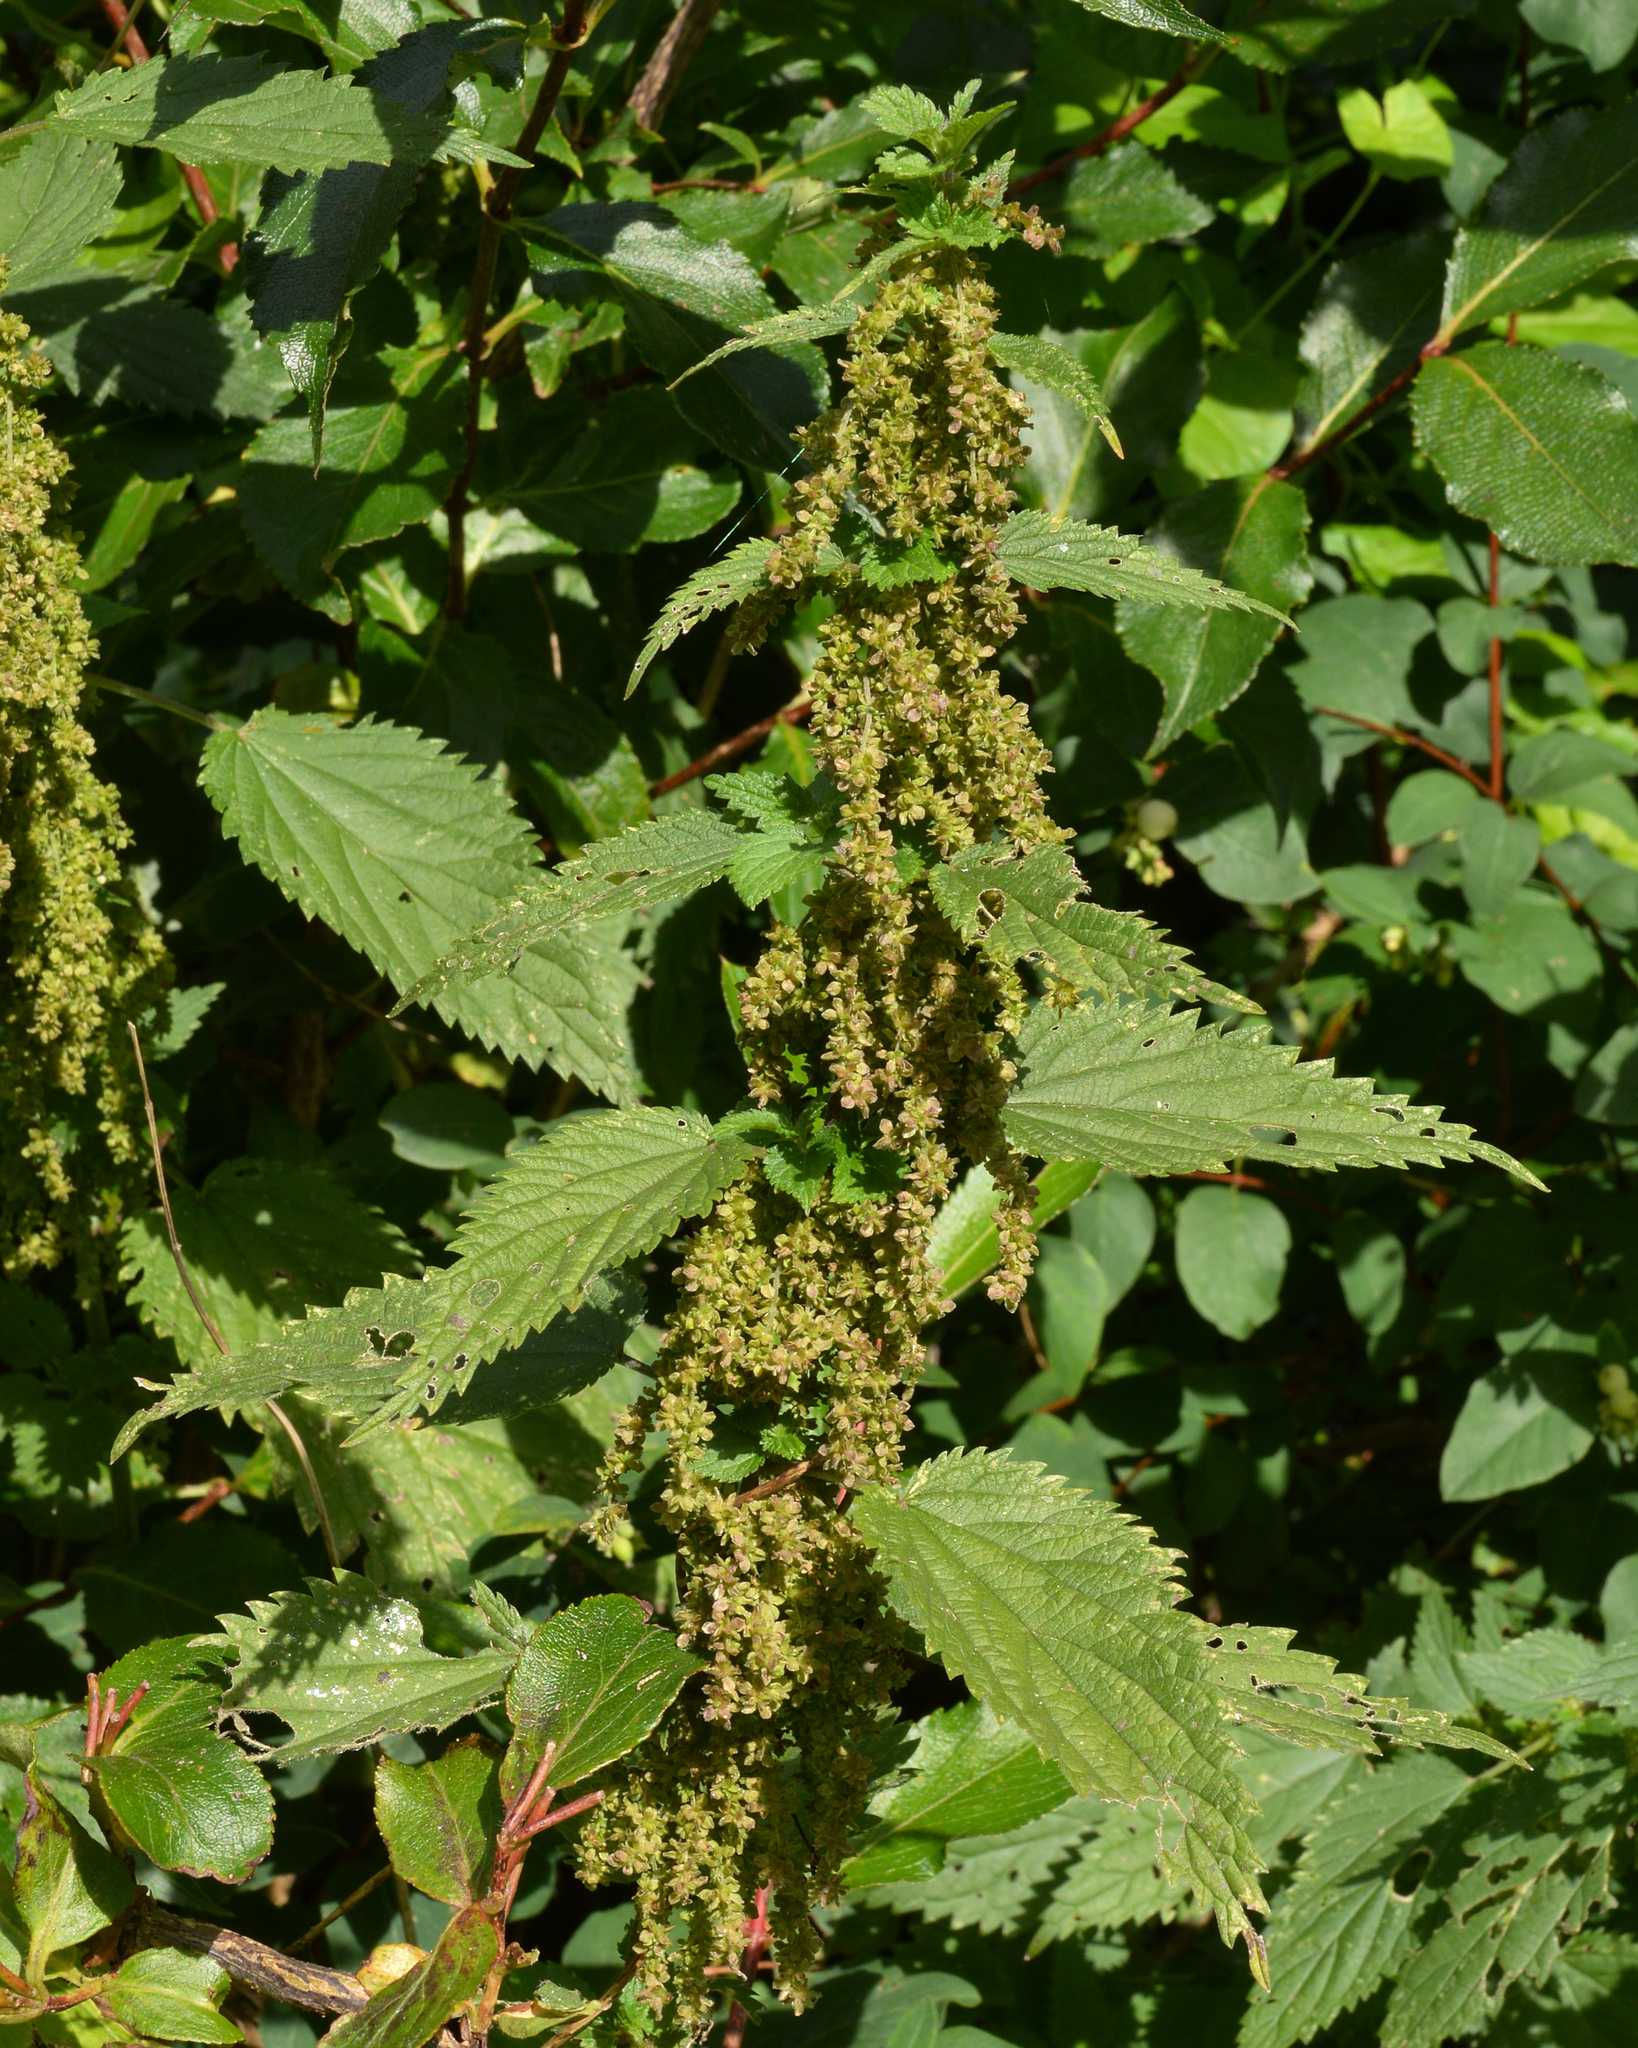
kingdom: Plantae
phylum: Tracheophyta
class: Magnoliopsida
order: Rosales
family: Urticaceae
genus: Urtica
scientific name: Urtica dioica
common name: Common nettle
